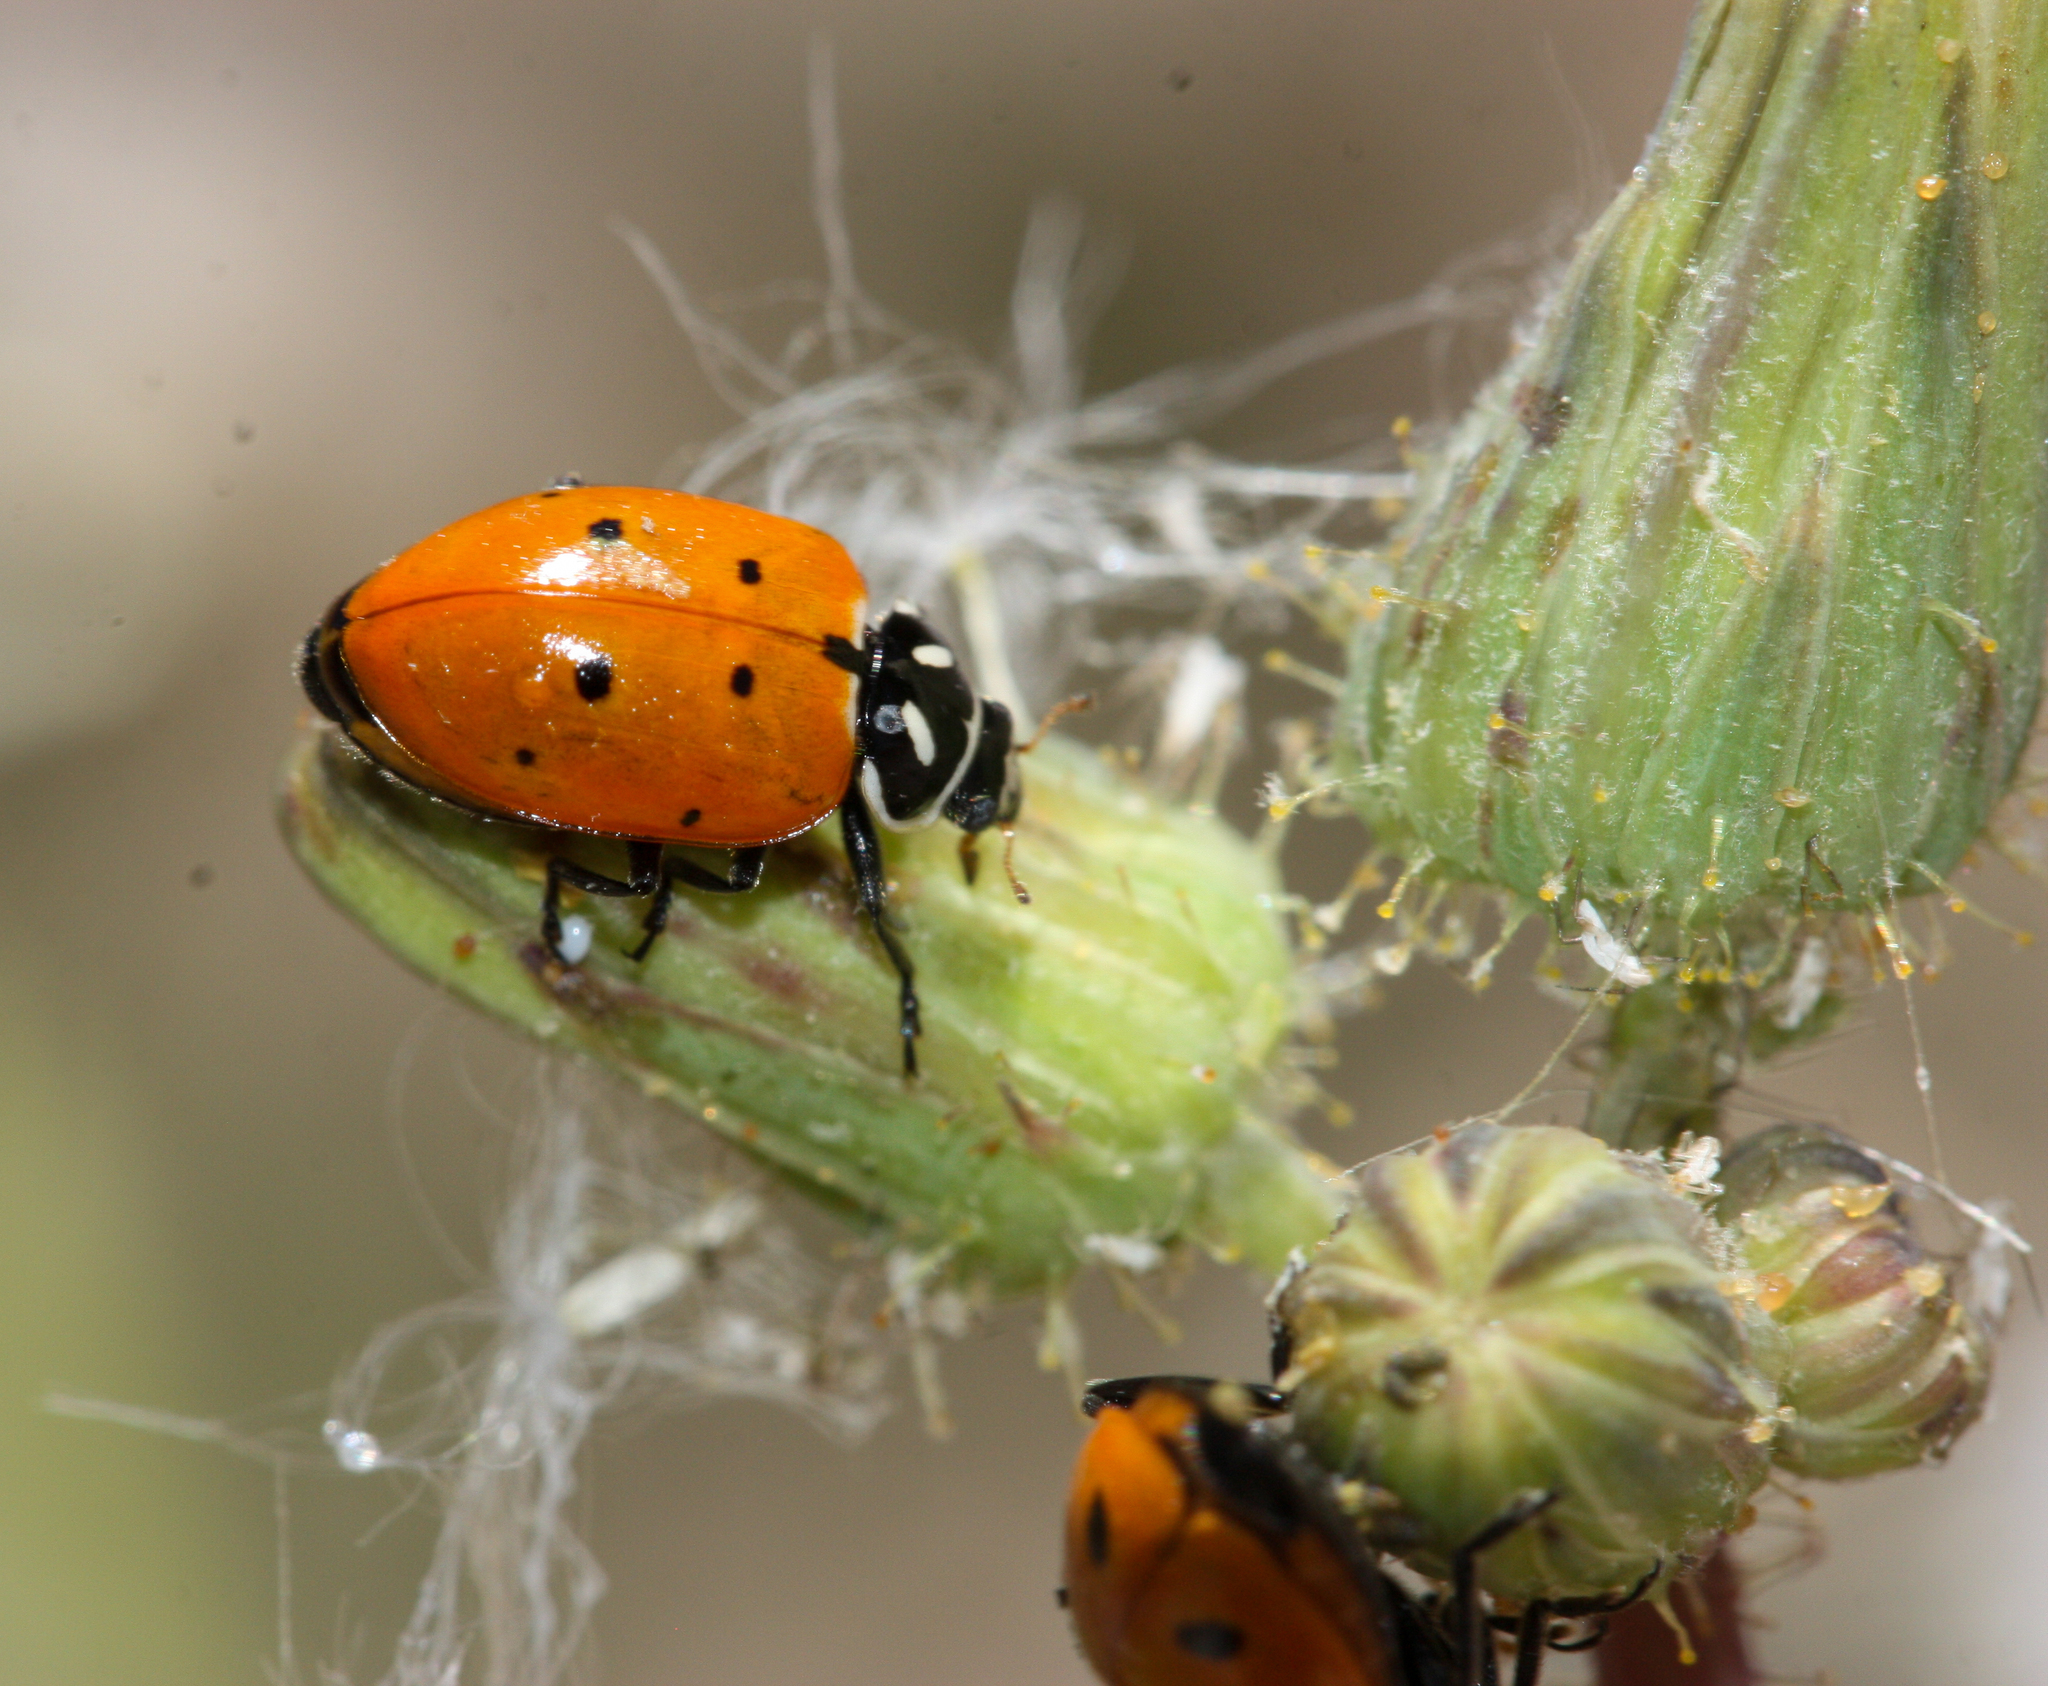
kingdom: Animalia
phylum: Arthropoda
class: Insecta
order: Coleoptera
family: Coccinellidae
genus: Hippodamia
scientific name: Hippodamia convergens
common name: Convergent lady beetle
